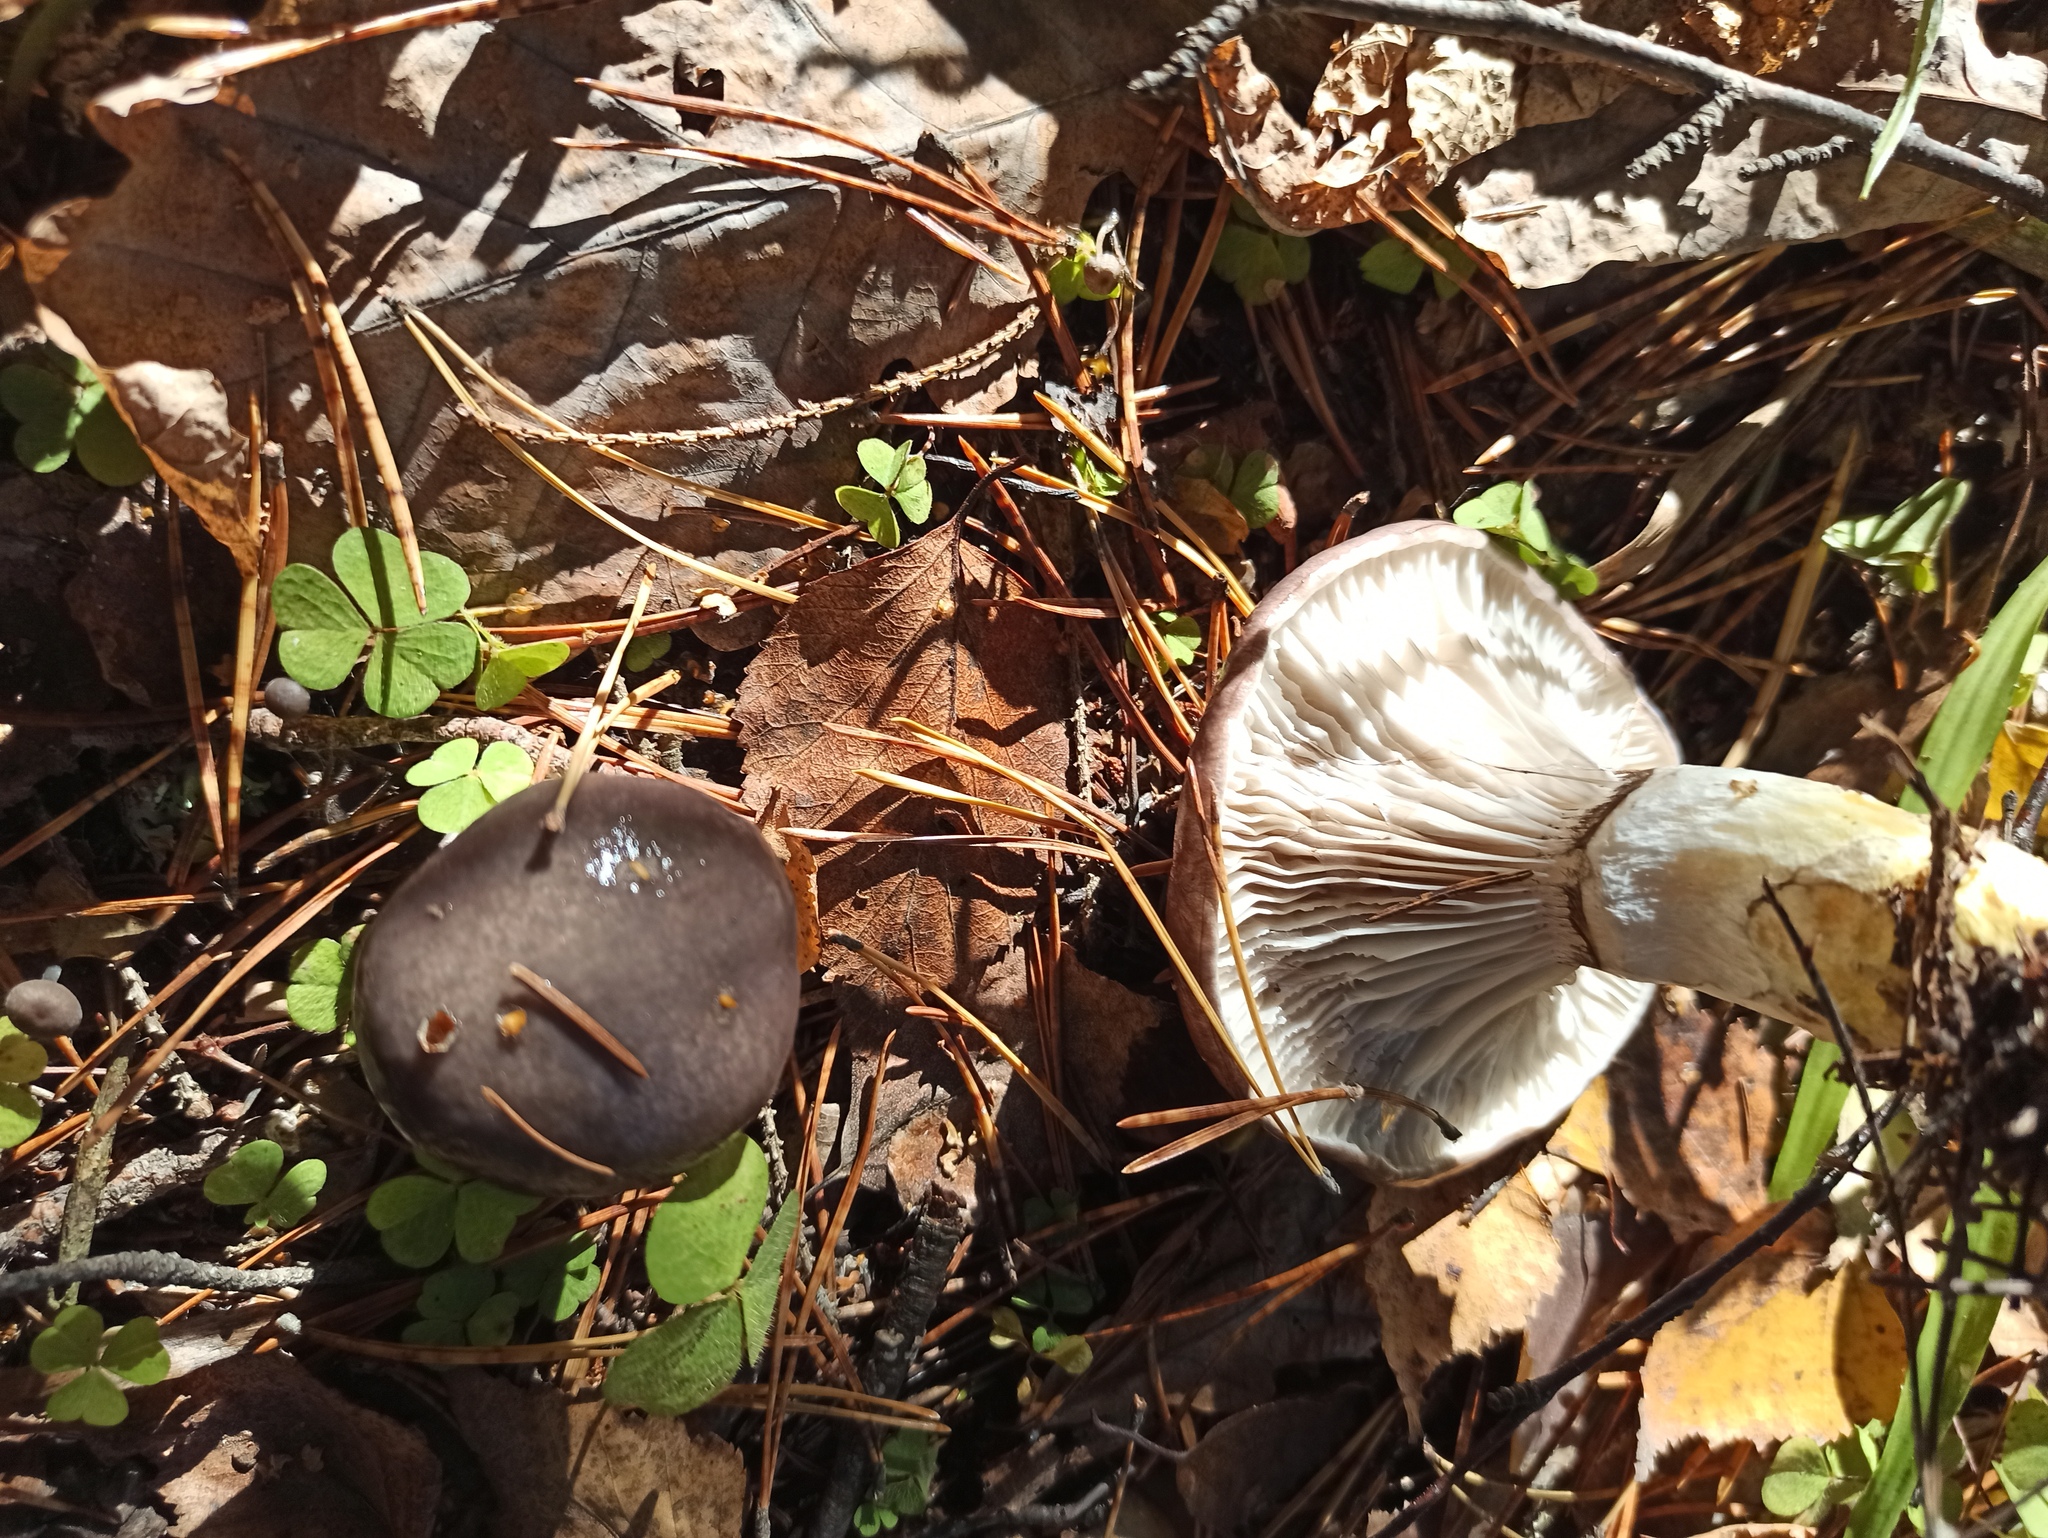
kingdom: Fungi
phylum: Basidiomycota
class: Agaricomycetes
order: Boletales
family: Gomphidiaceae
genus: Gomphidius
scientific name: Gomphidius glutinosus
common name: Slimy spike
